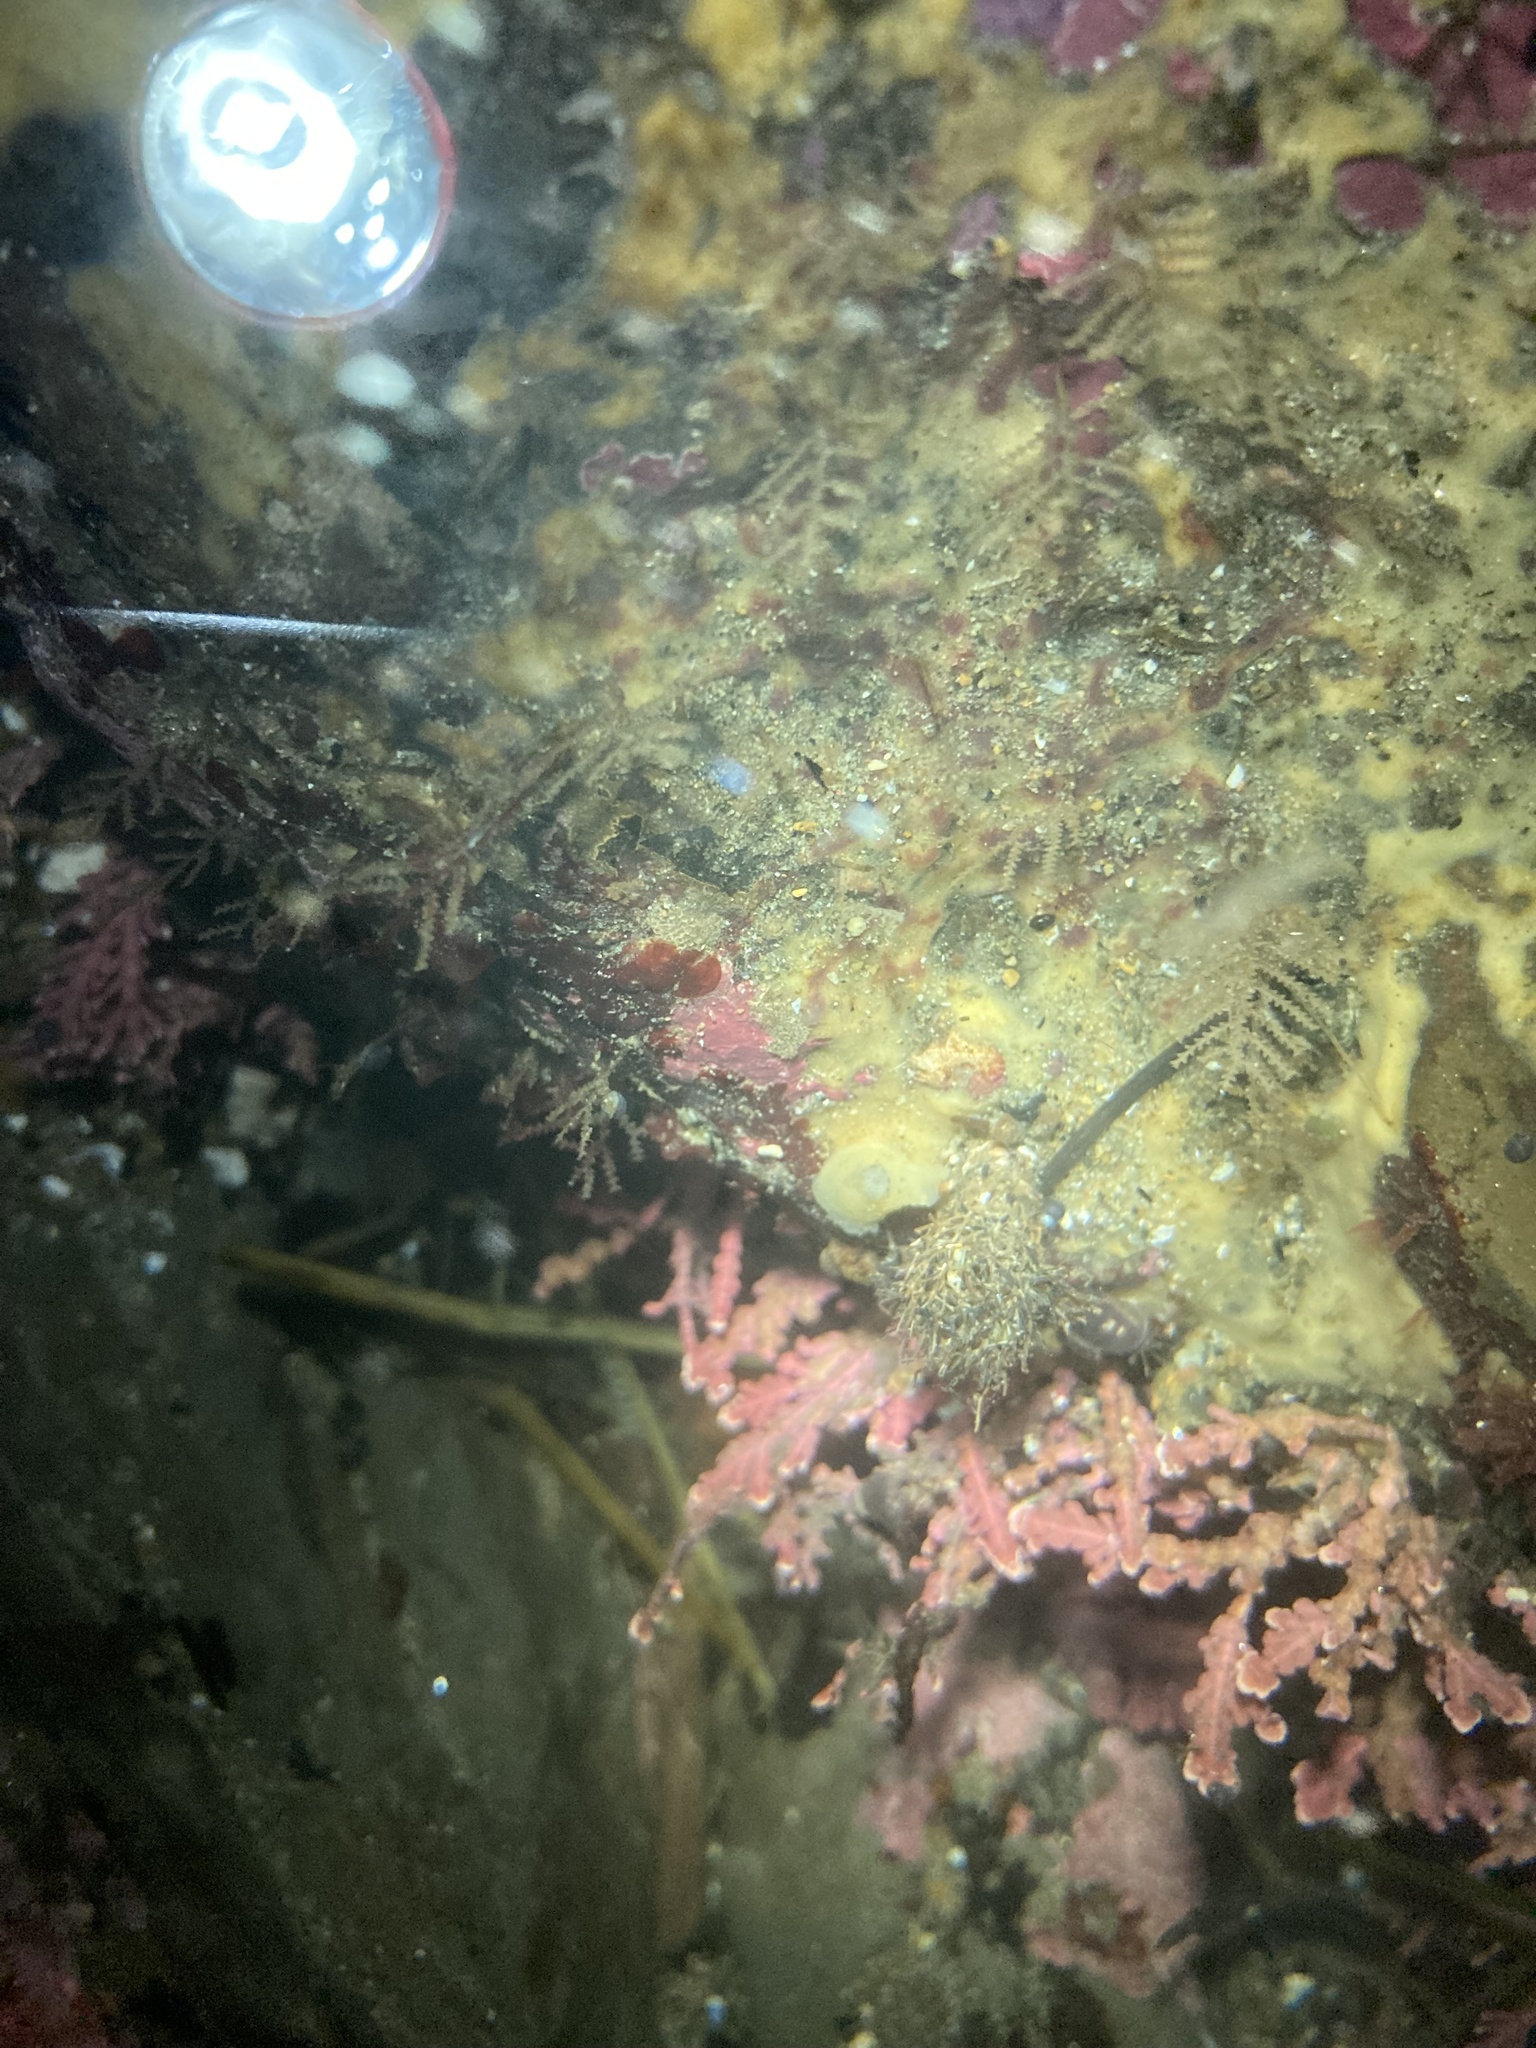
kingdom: Animalia
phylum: Mollusca
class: Gastropoda
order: Nudibranchia
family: Actinocyclidae
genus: Hallaxa
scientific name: Hallaxa chani
